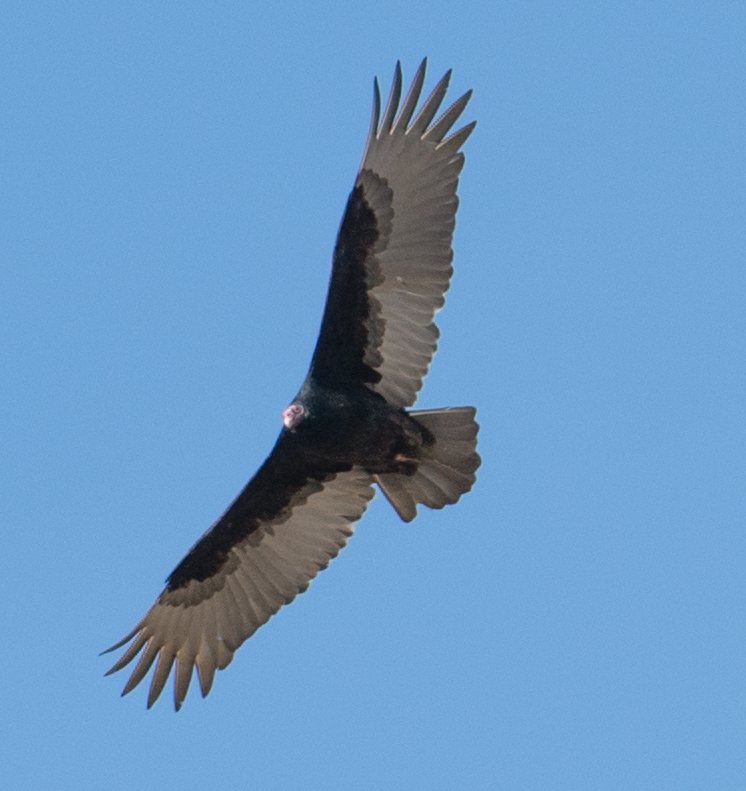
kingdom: Animalia
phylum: Chordata
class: Aves
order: Accipitriformes
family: Cathartidae
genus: Cathartes
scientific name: Cathartes aura
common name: Turkey vulture
